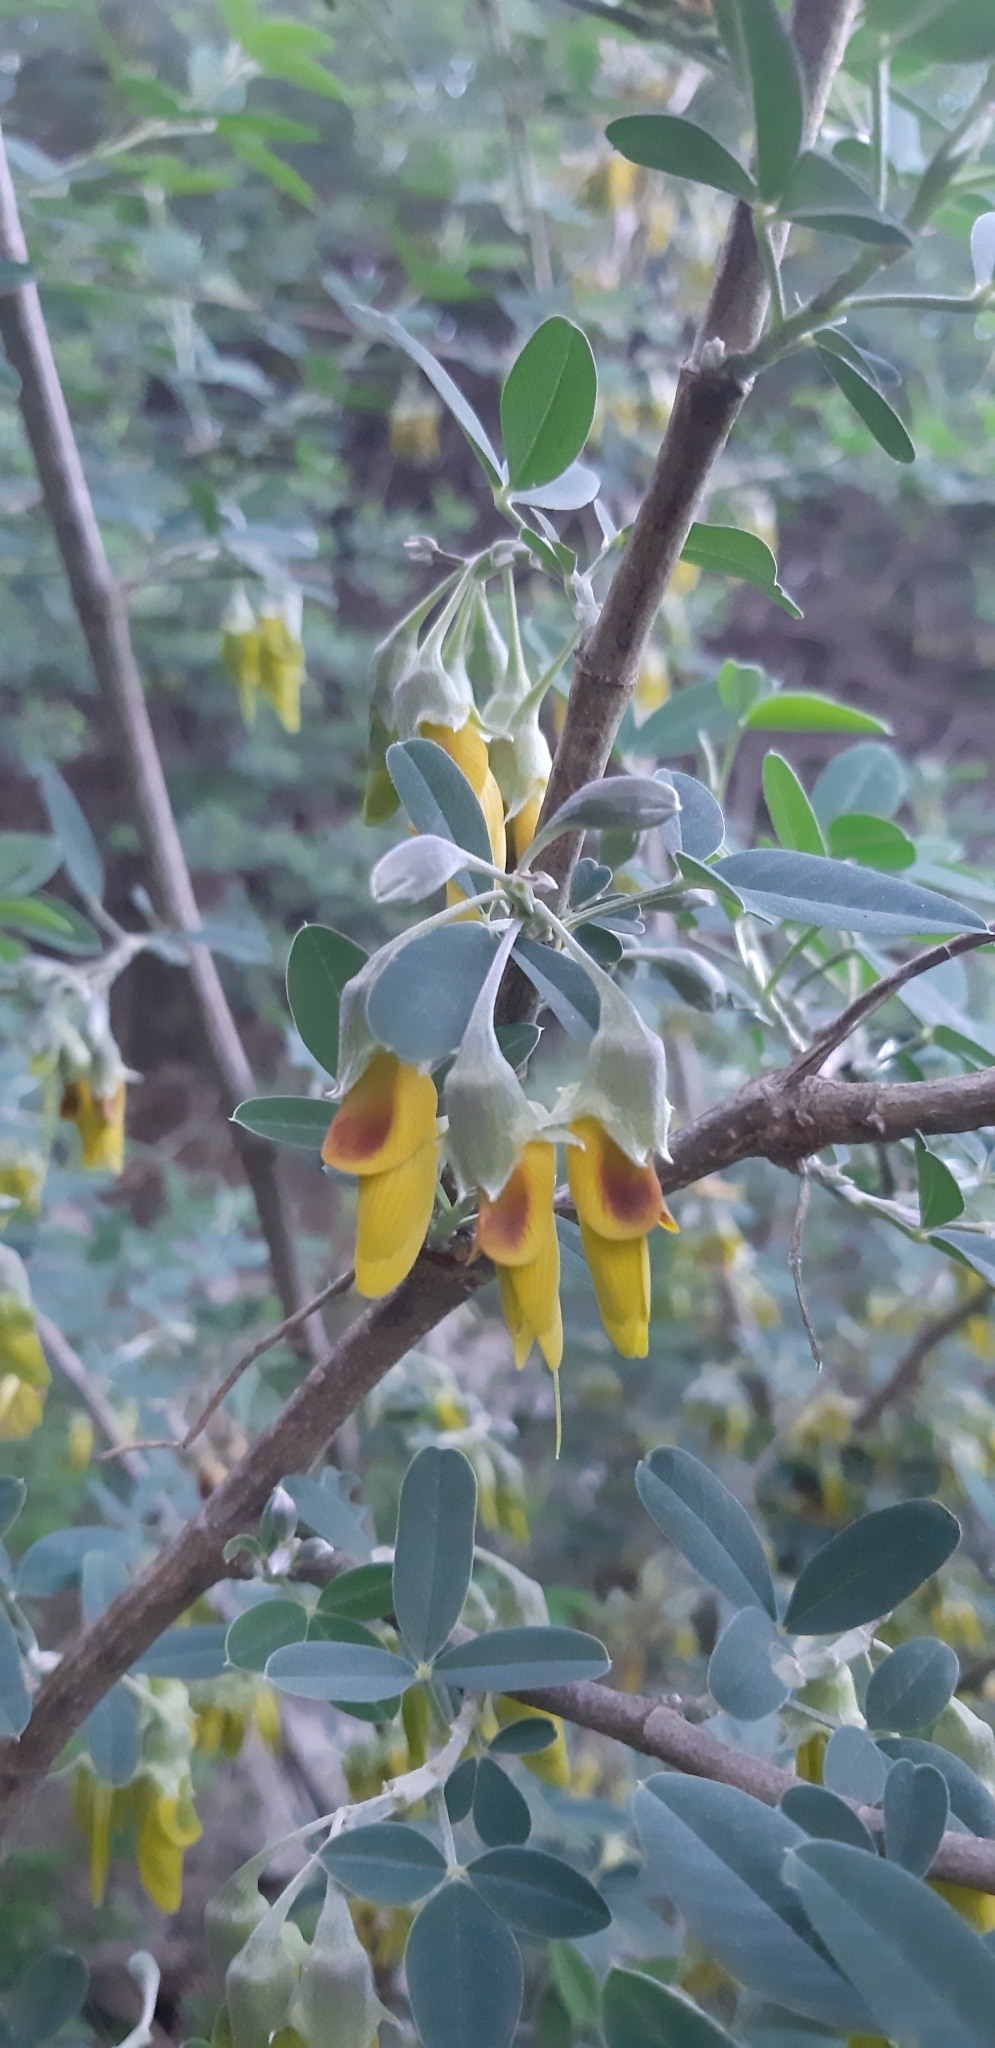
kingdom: Plantae
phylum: Tracheophyta
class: Magnoliopsida
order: Fabales
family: Fabaceae
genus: Anagyris
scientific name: Anagyris foetida
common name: Stinking bean trefoil
